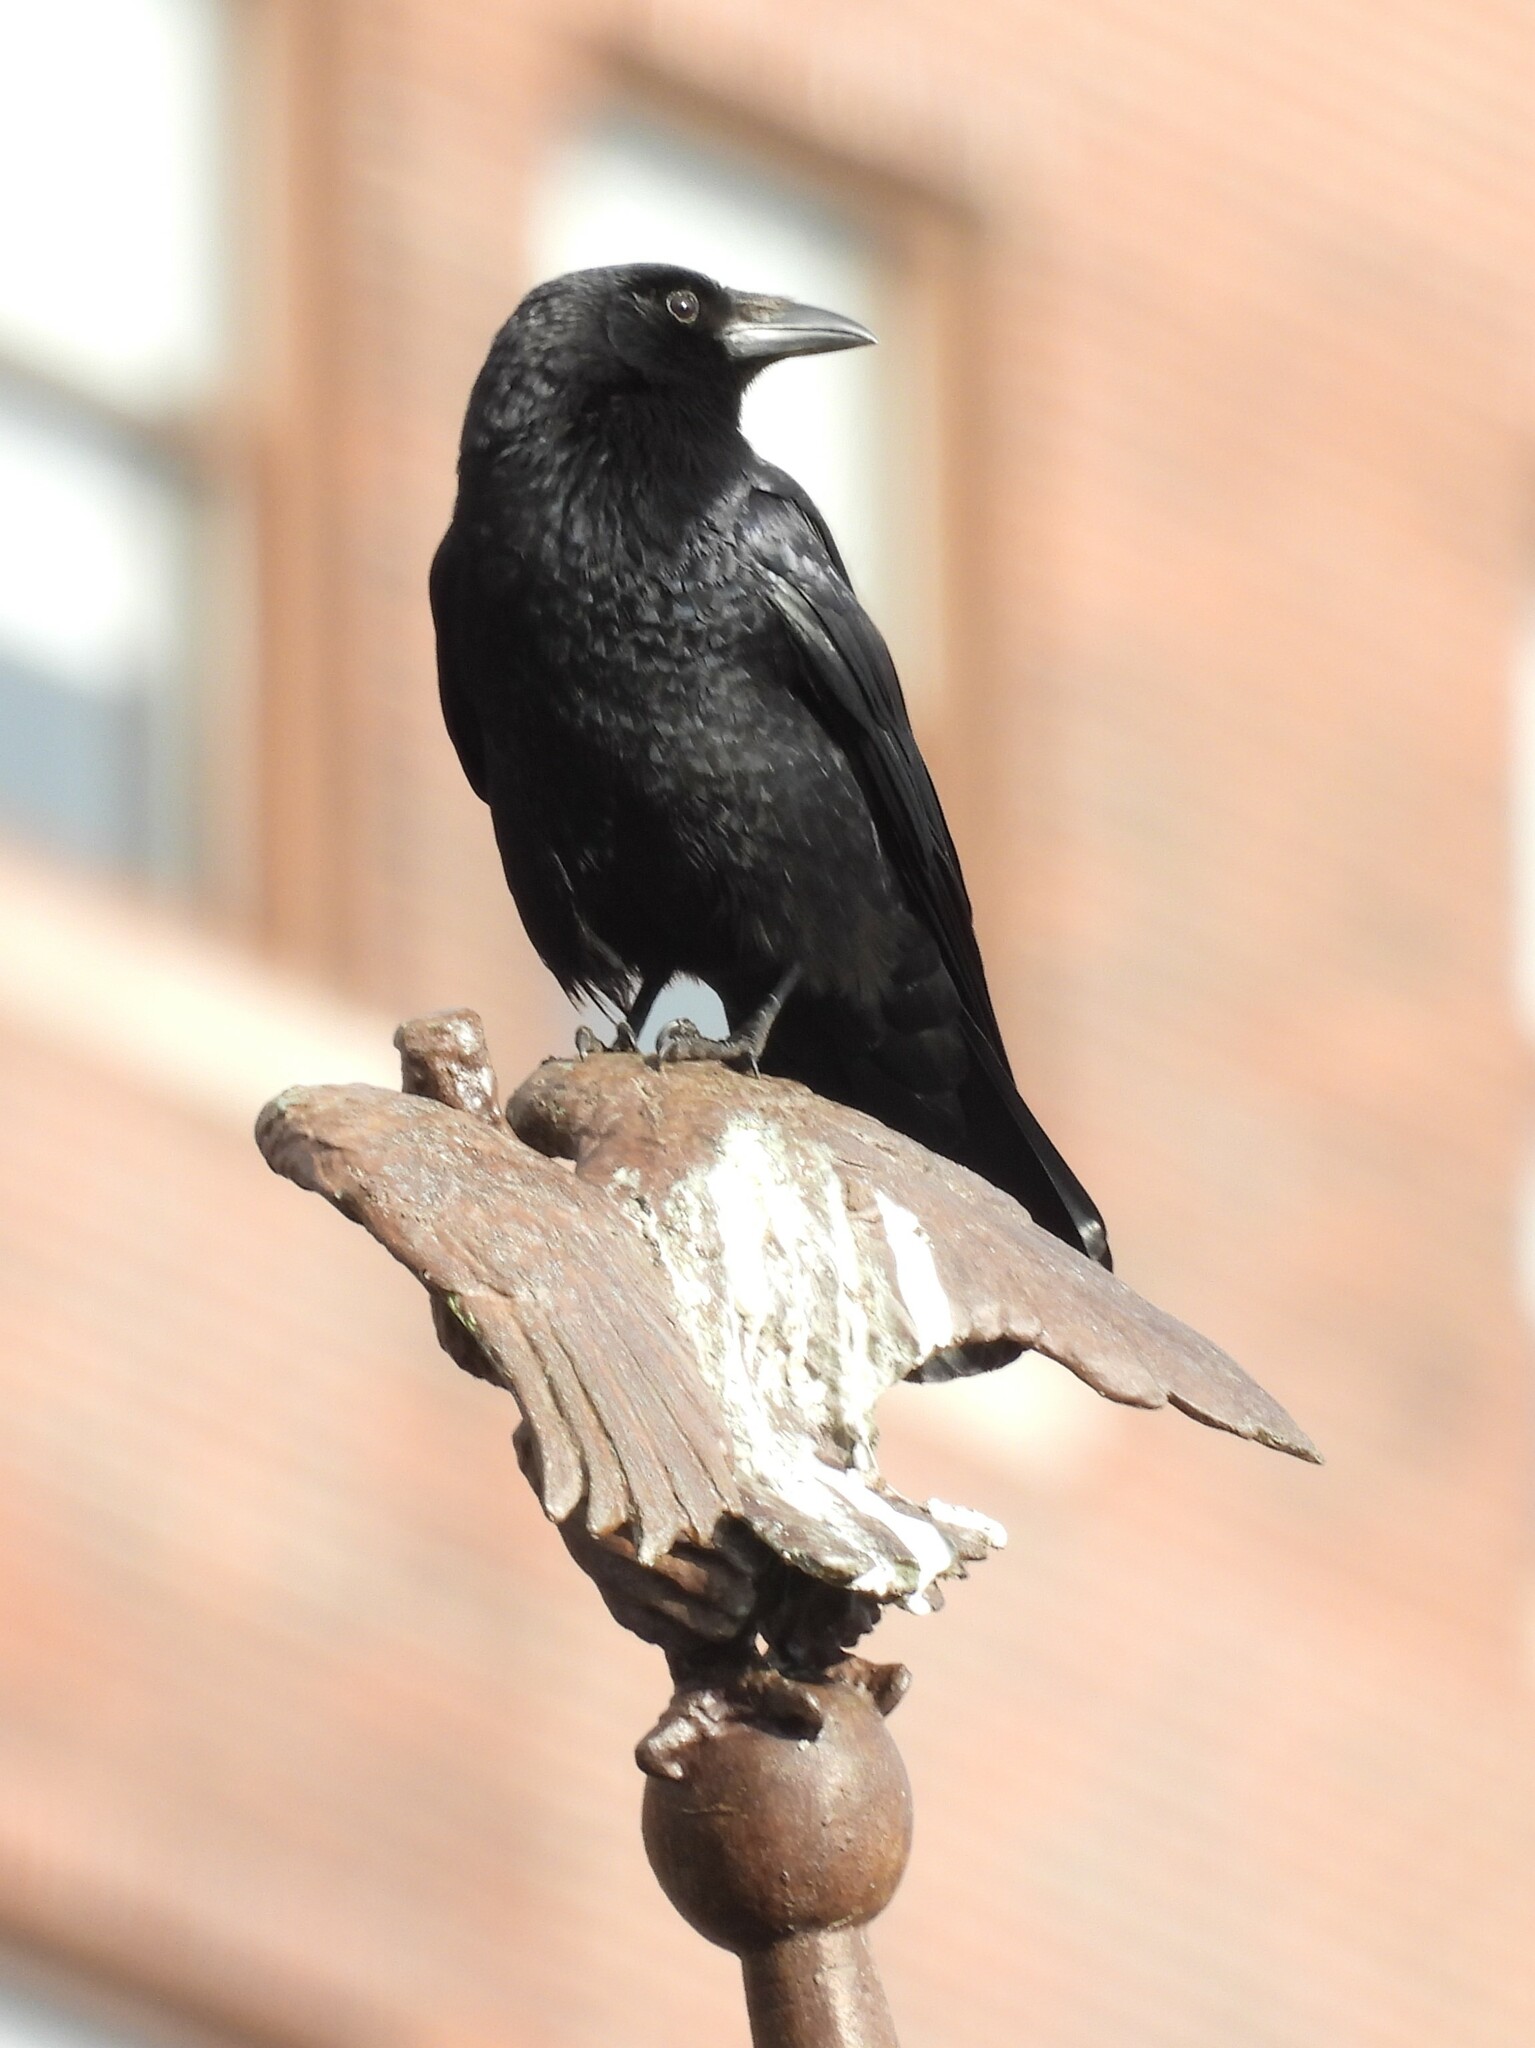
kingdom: Animalia
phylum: Chordata
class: Aves
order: Passeriformes
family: Corvidae
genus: Corvus
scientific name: Corvus brachyrhynchos
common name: American crow
